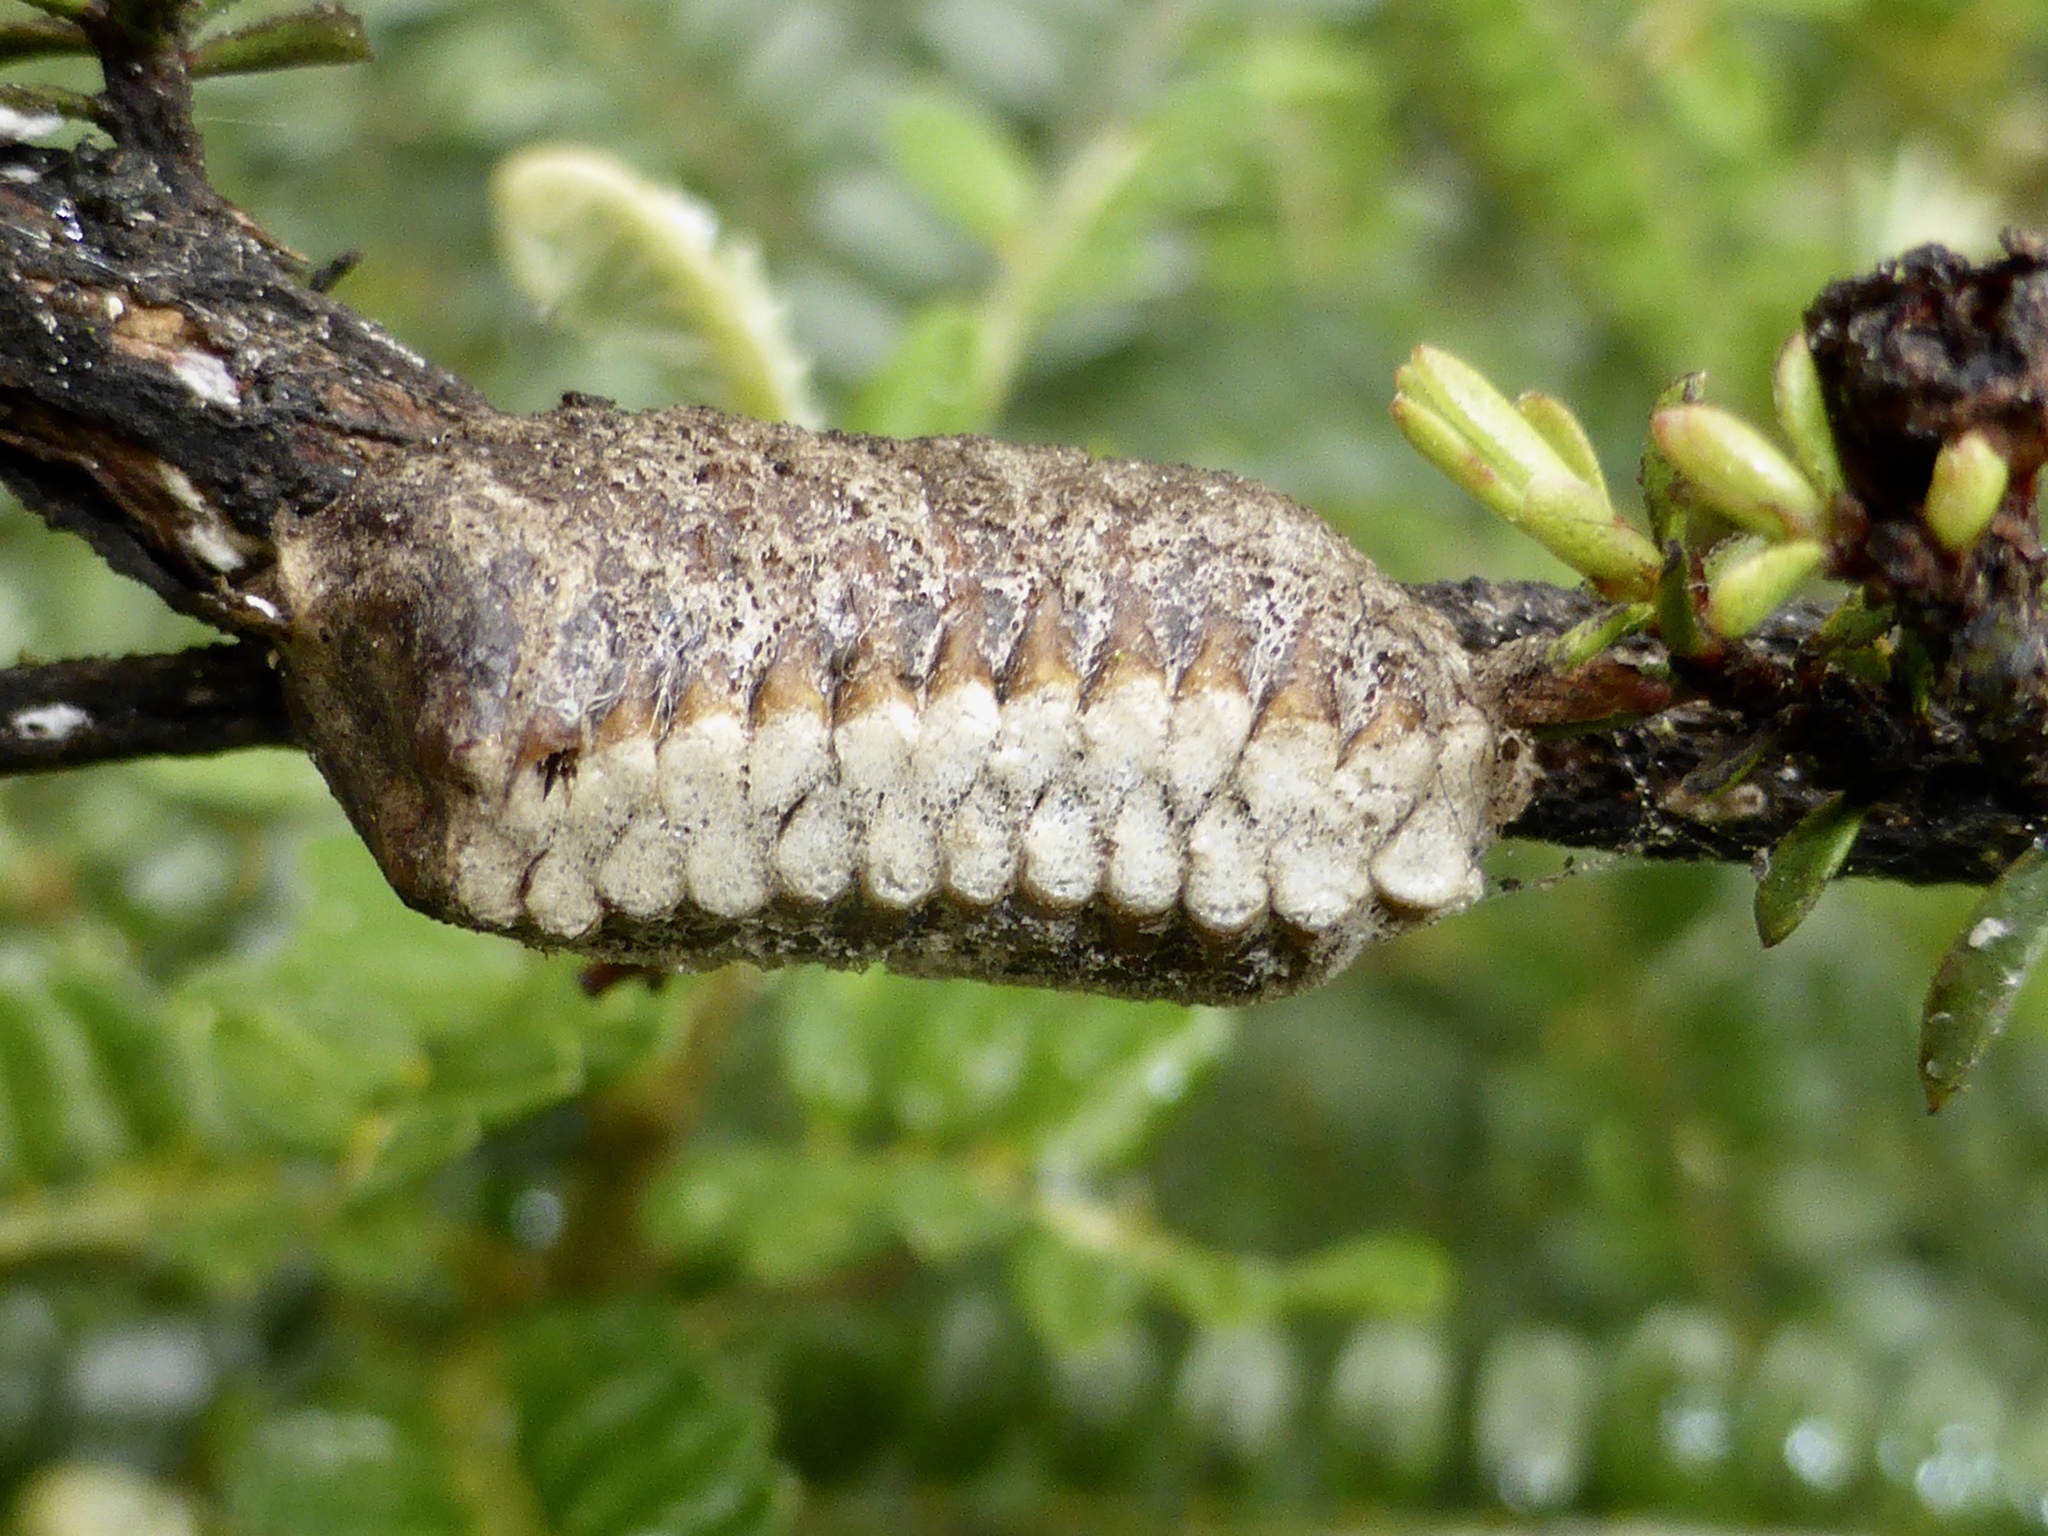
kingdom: Animalia
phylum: Arthropoda
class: Insecta
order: Mantodea
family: Mantidae
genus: Orthodera
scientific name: Orthodera novaezealandiae
